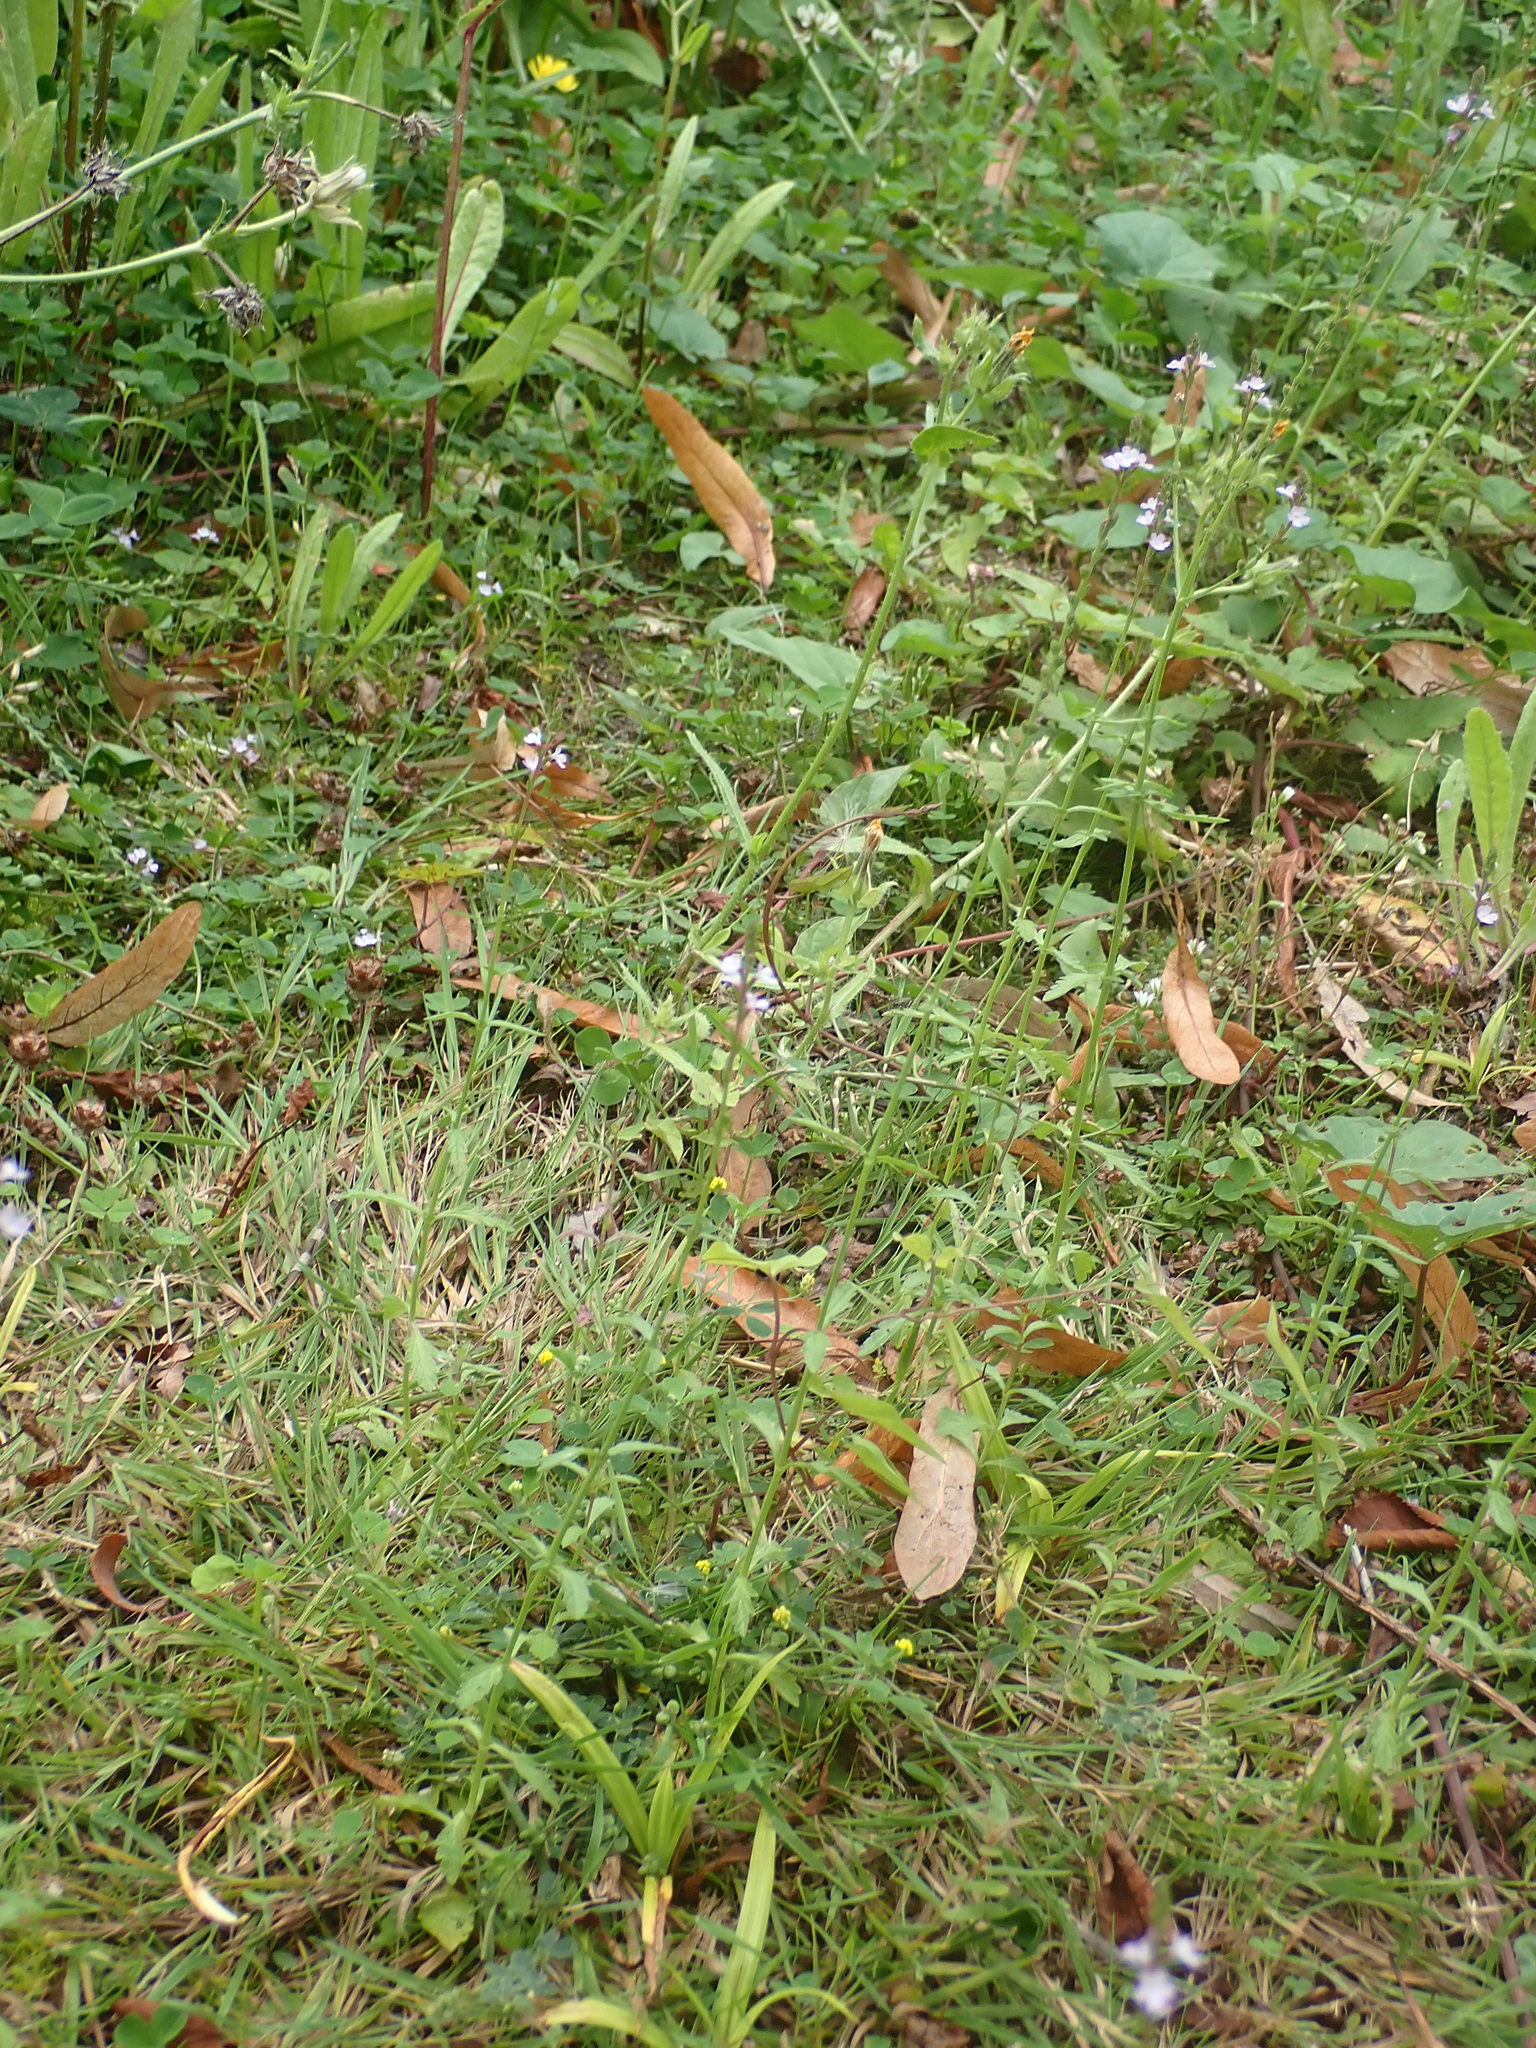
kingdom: Plantae
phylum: Tracheophyta
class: Magnoliopsida
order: Lamiales
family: Verbenaceae
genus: Verbena
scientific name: Verbena officinalis
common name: Vervain
